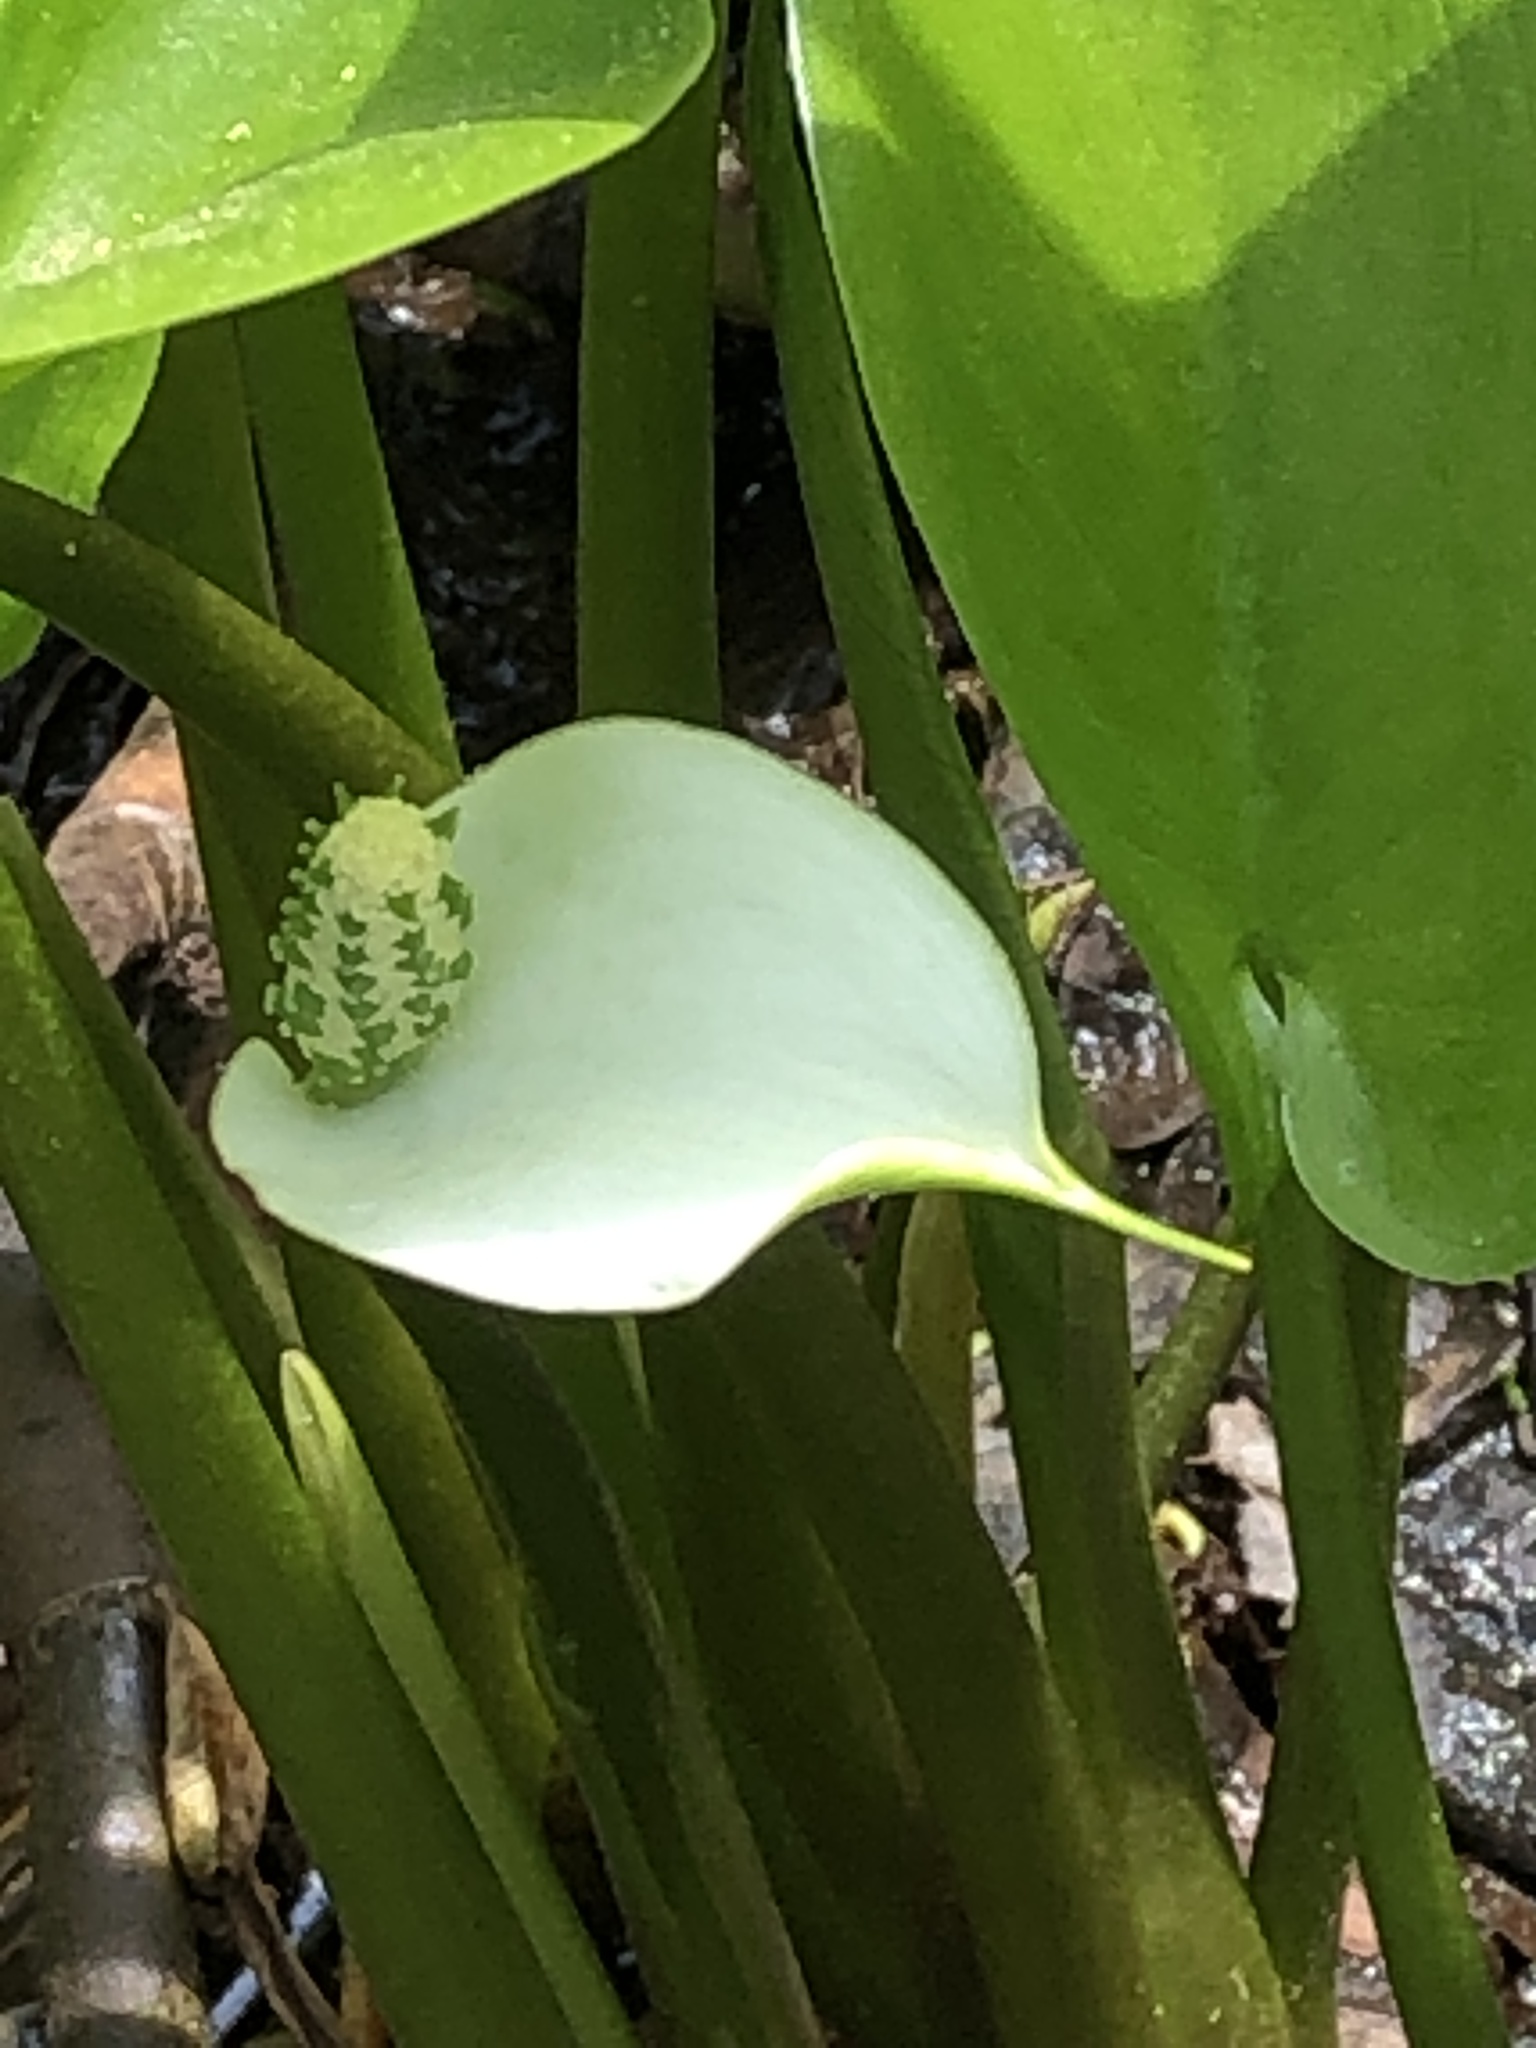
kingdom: Plantae
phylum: Tracheophyta
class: Liliopsida
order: Alismatales
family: Araceae
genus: Calla
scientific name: Calla palustris
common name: Bog arum
